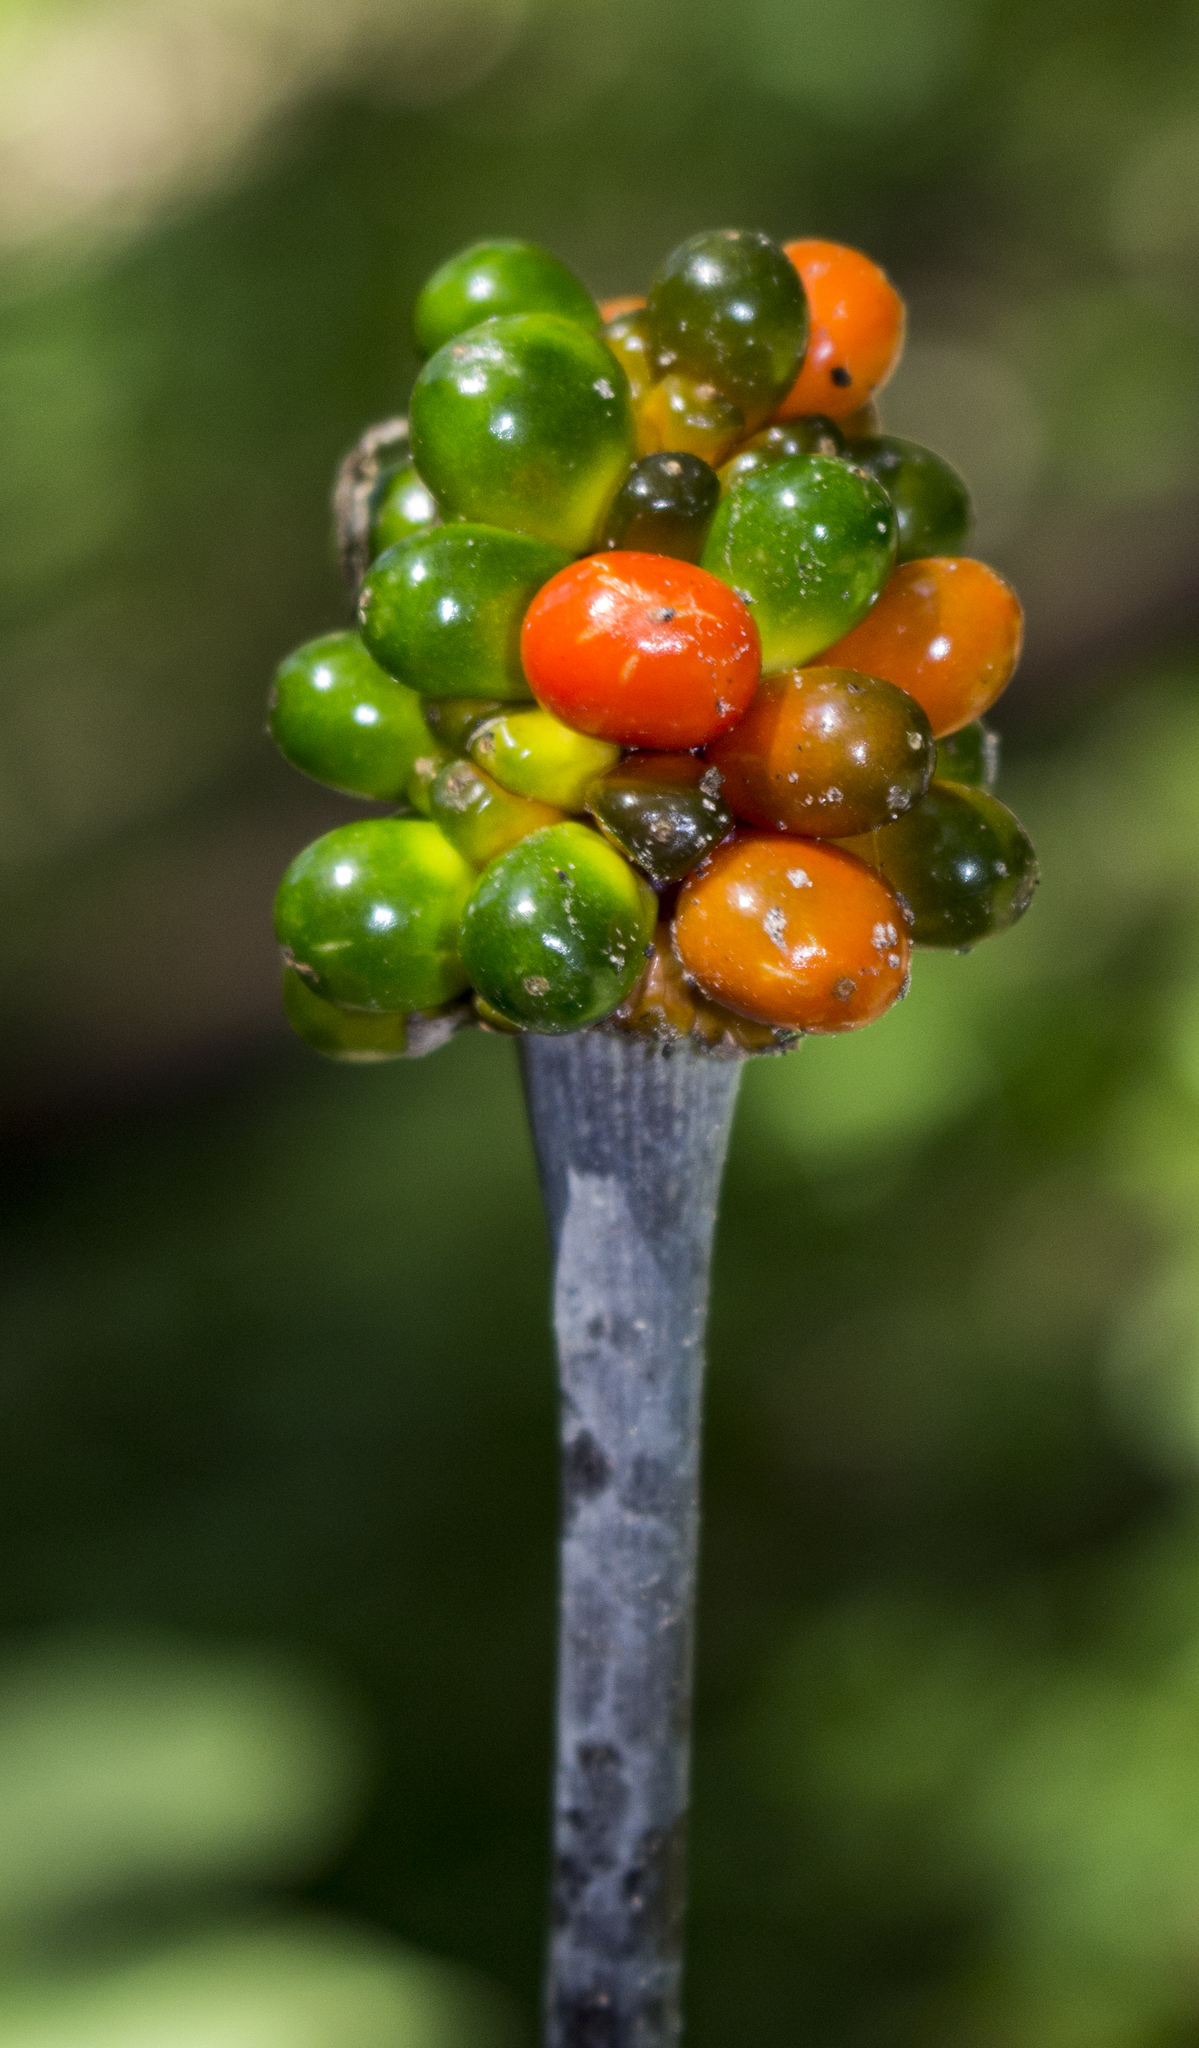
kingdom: Plantae
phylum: Tracheophyta
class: Liliopsida
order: Alismatales
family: Araceae
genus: Arisaema
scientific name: Arisaema triphyllum
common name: Jack-in-the-pulpit
